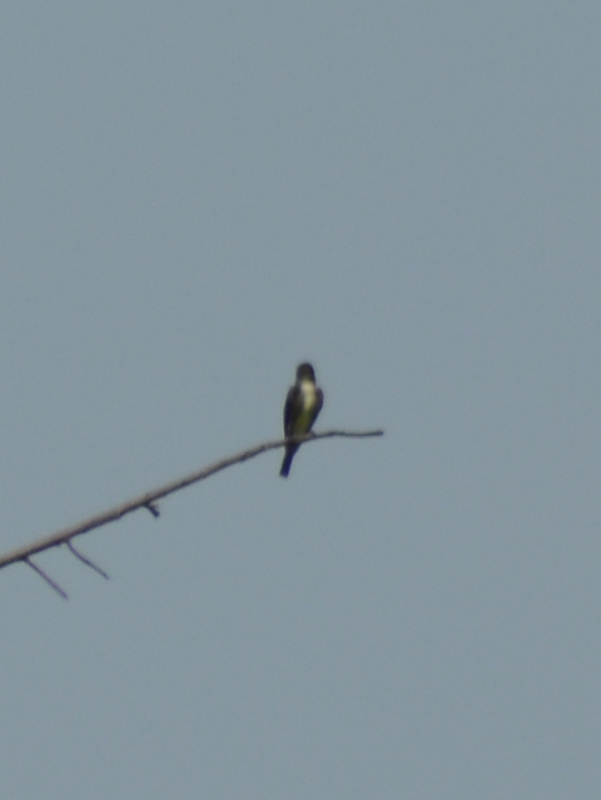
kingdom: Animalia
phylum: Chordata
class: Aves
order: Passeriformes
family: Tyrannidae
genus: Contopus
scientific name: Contopus cooperi
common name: Olive-sided flycatcher
